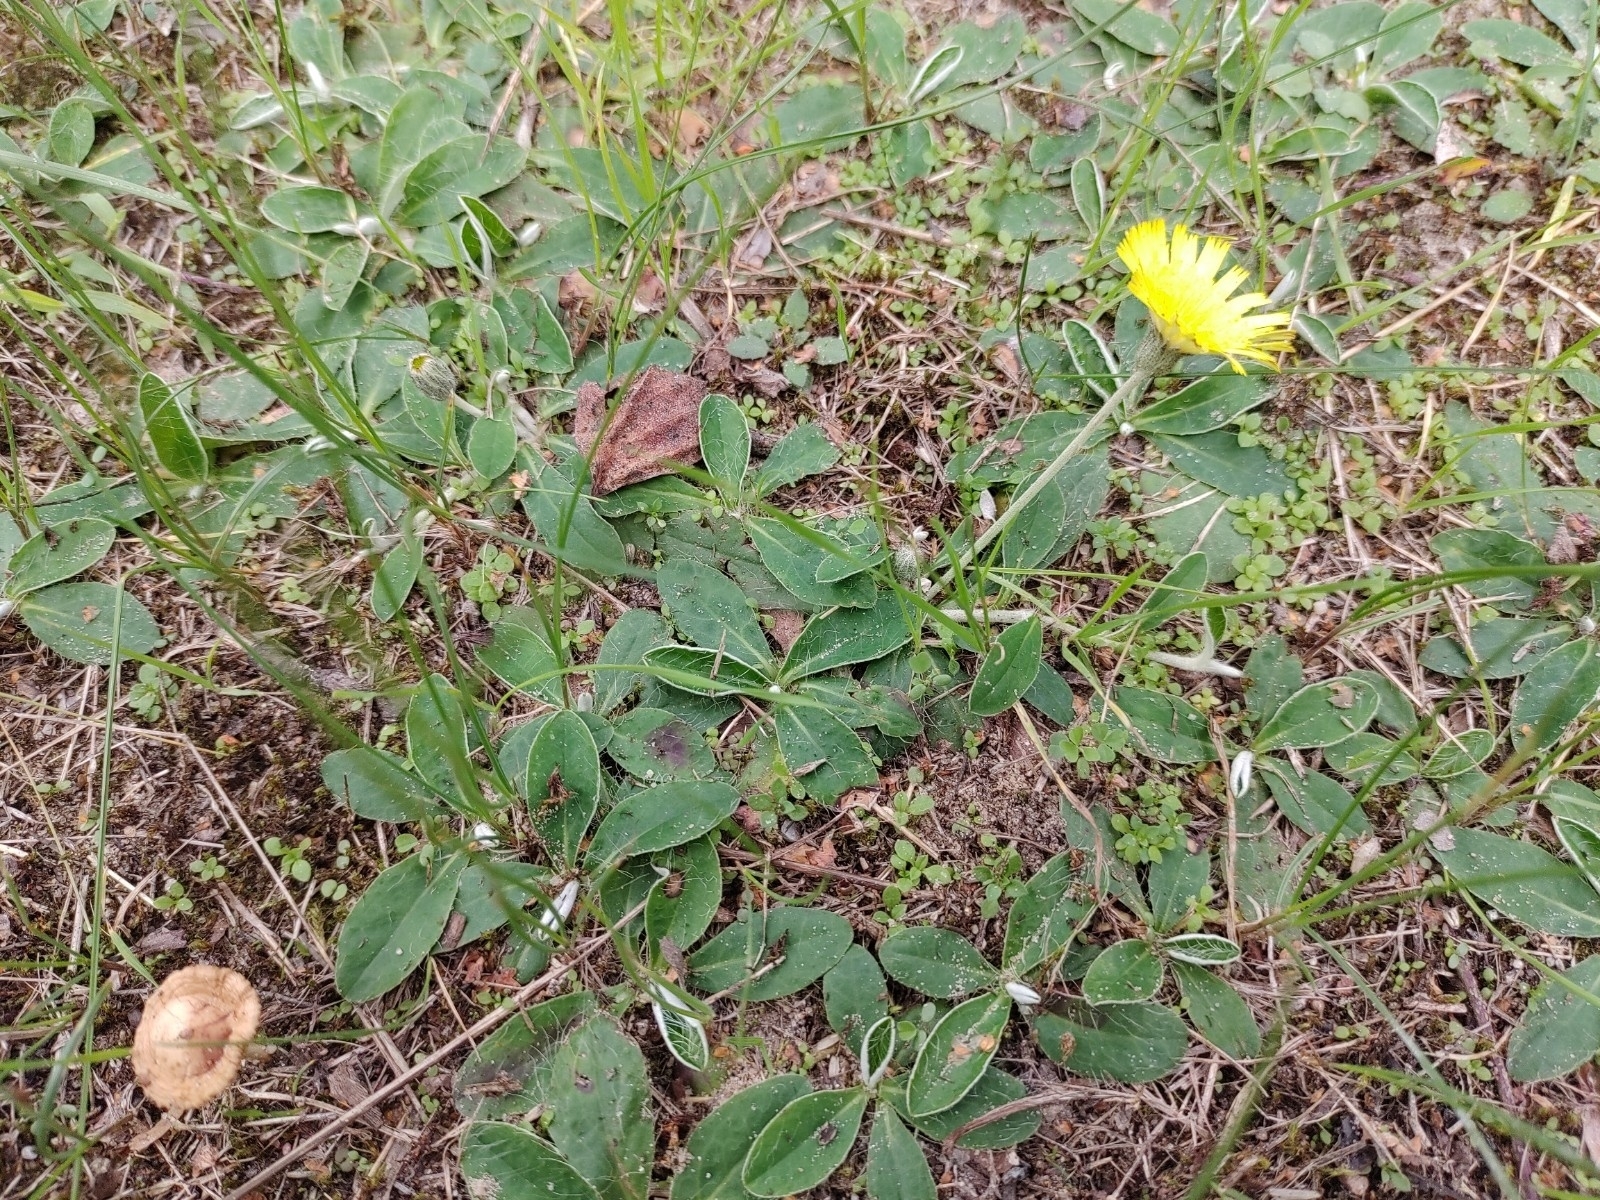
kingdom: Plantae
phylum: Tracheophyta
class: Magnoliopsida
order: Asterales
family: Asteraceae
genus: Pilosella
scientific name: Pilosella officinarum
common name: Mouse-ear hawkweed
